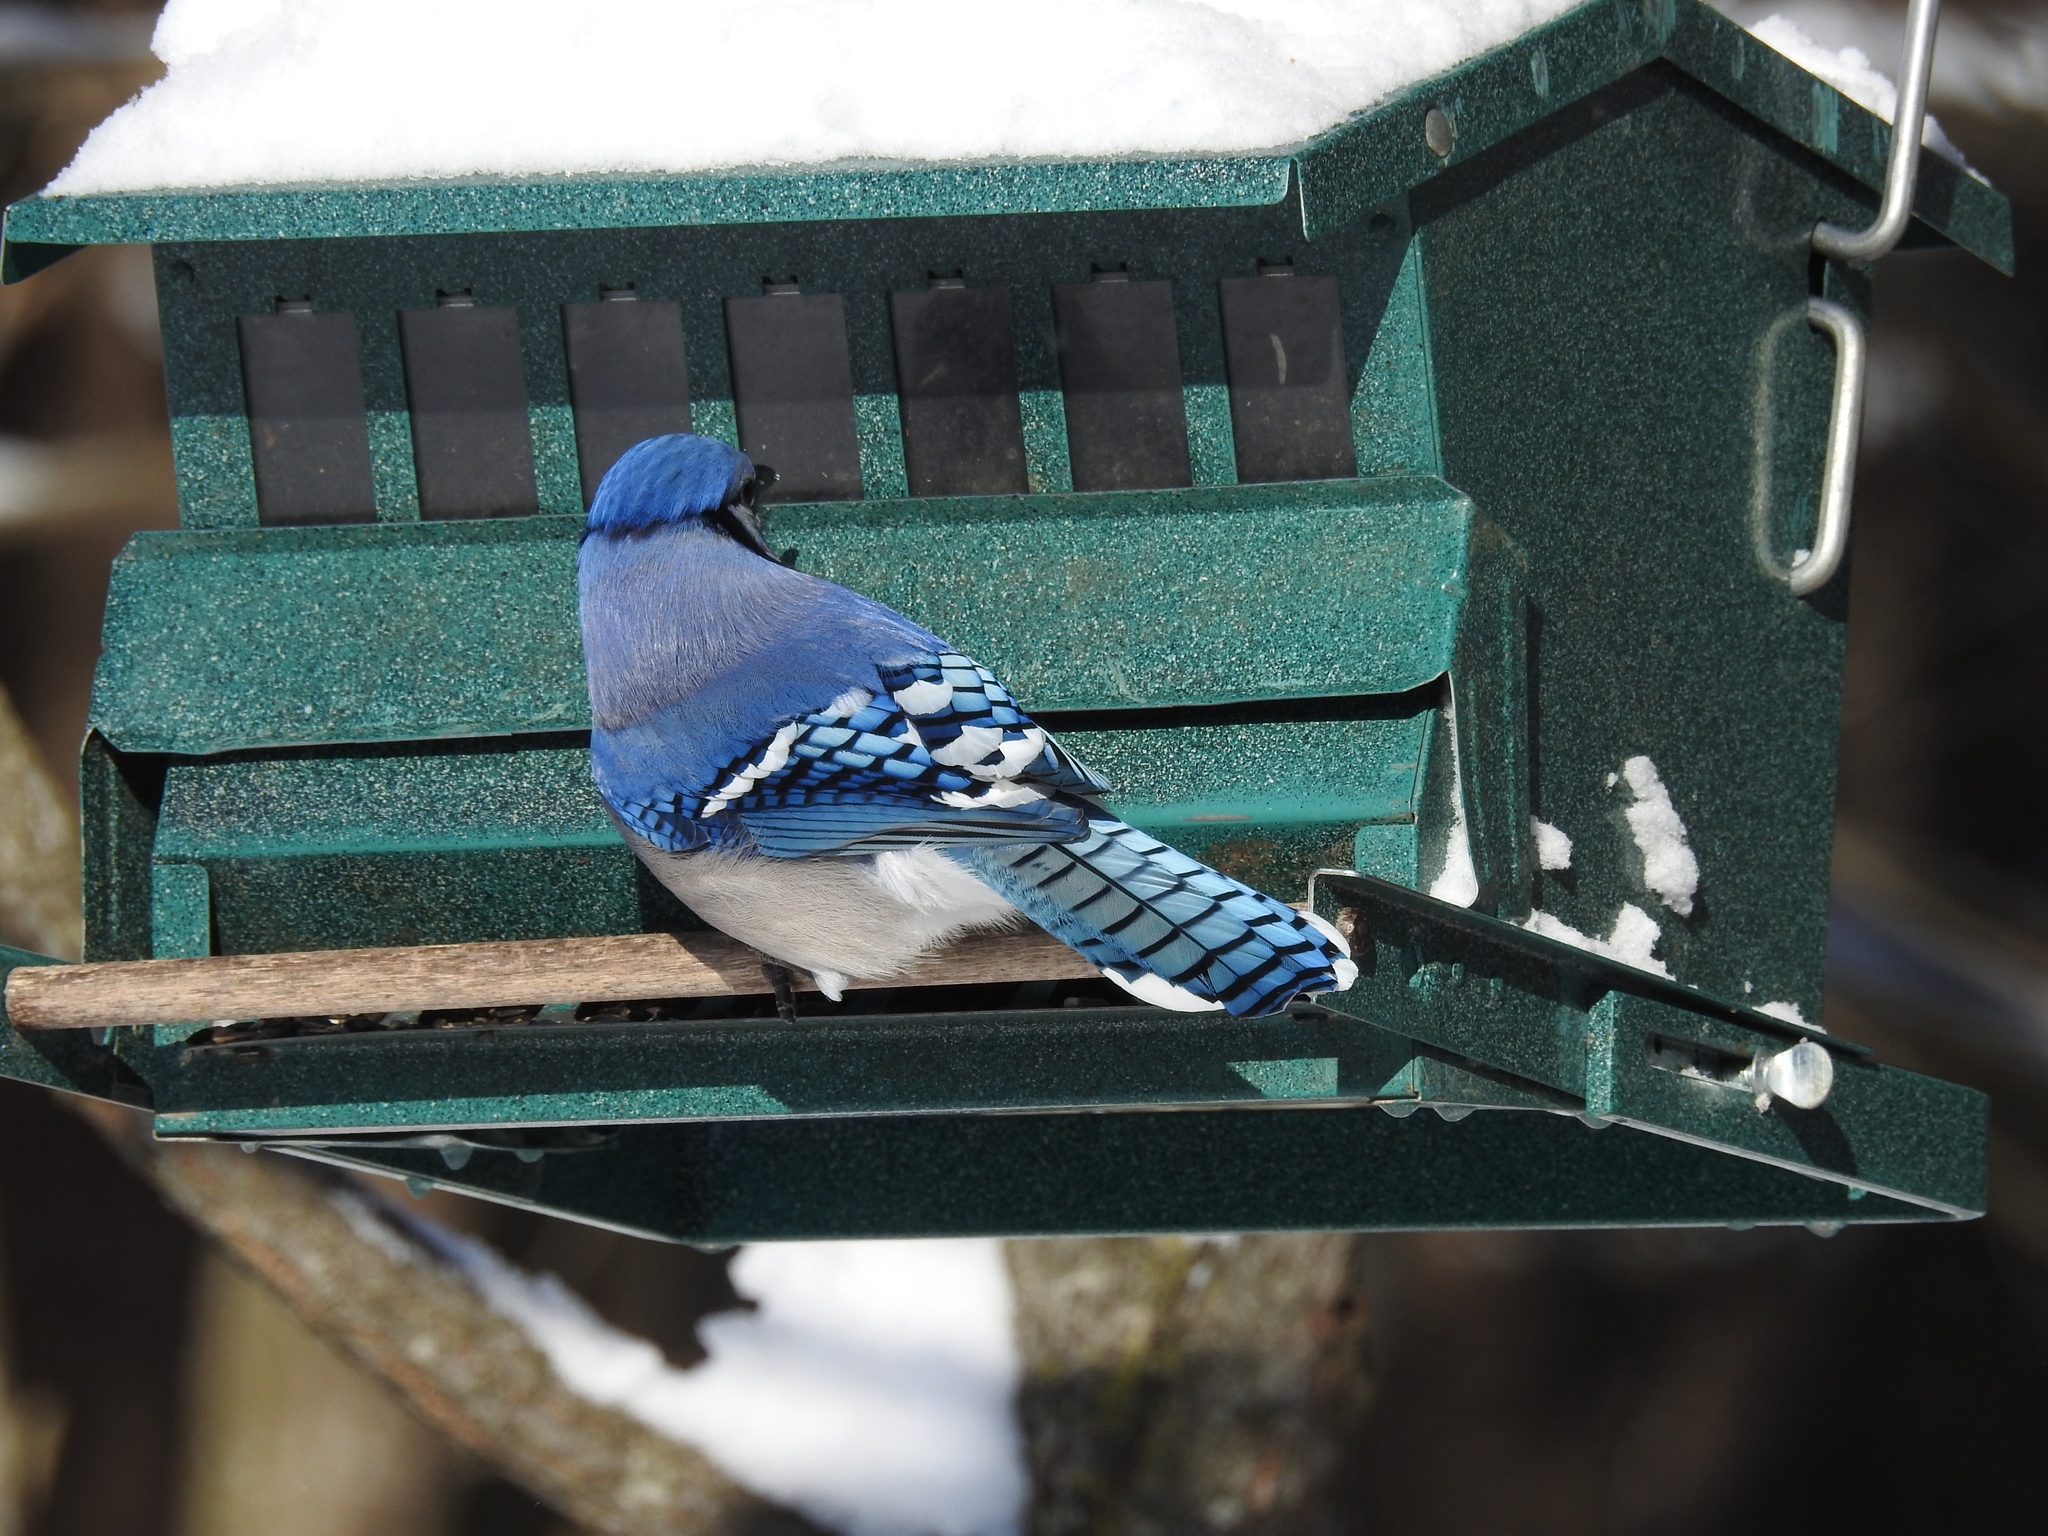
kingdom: Animalia
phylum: Chordata
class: Aves
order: Passeriformes
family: Corvidae
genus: Cyanocitta
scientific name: Cyanocitta cristata
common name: Blue jay
